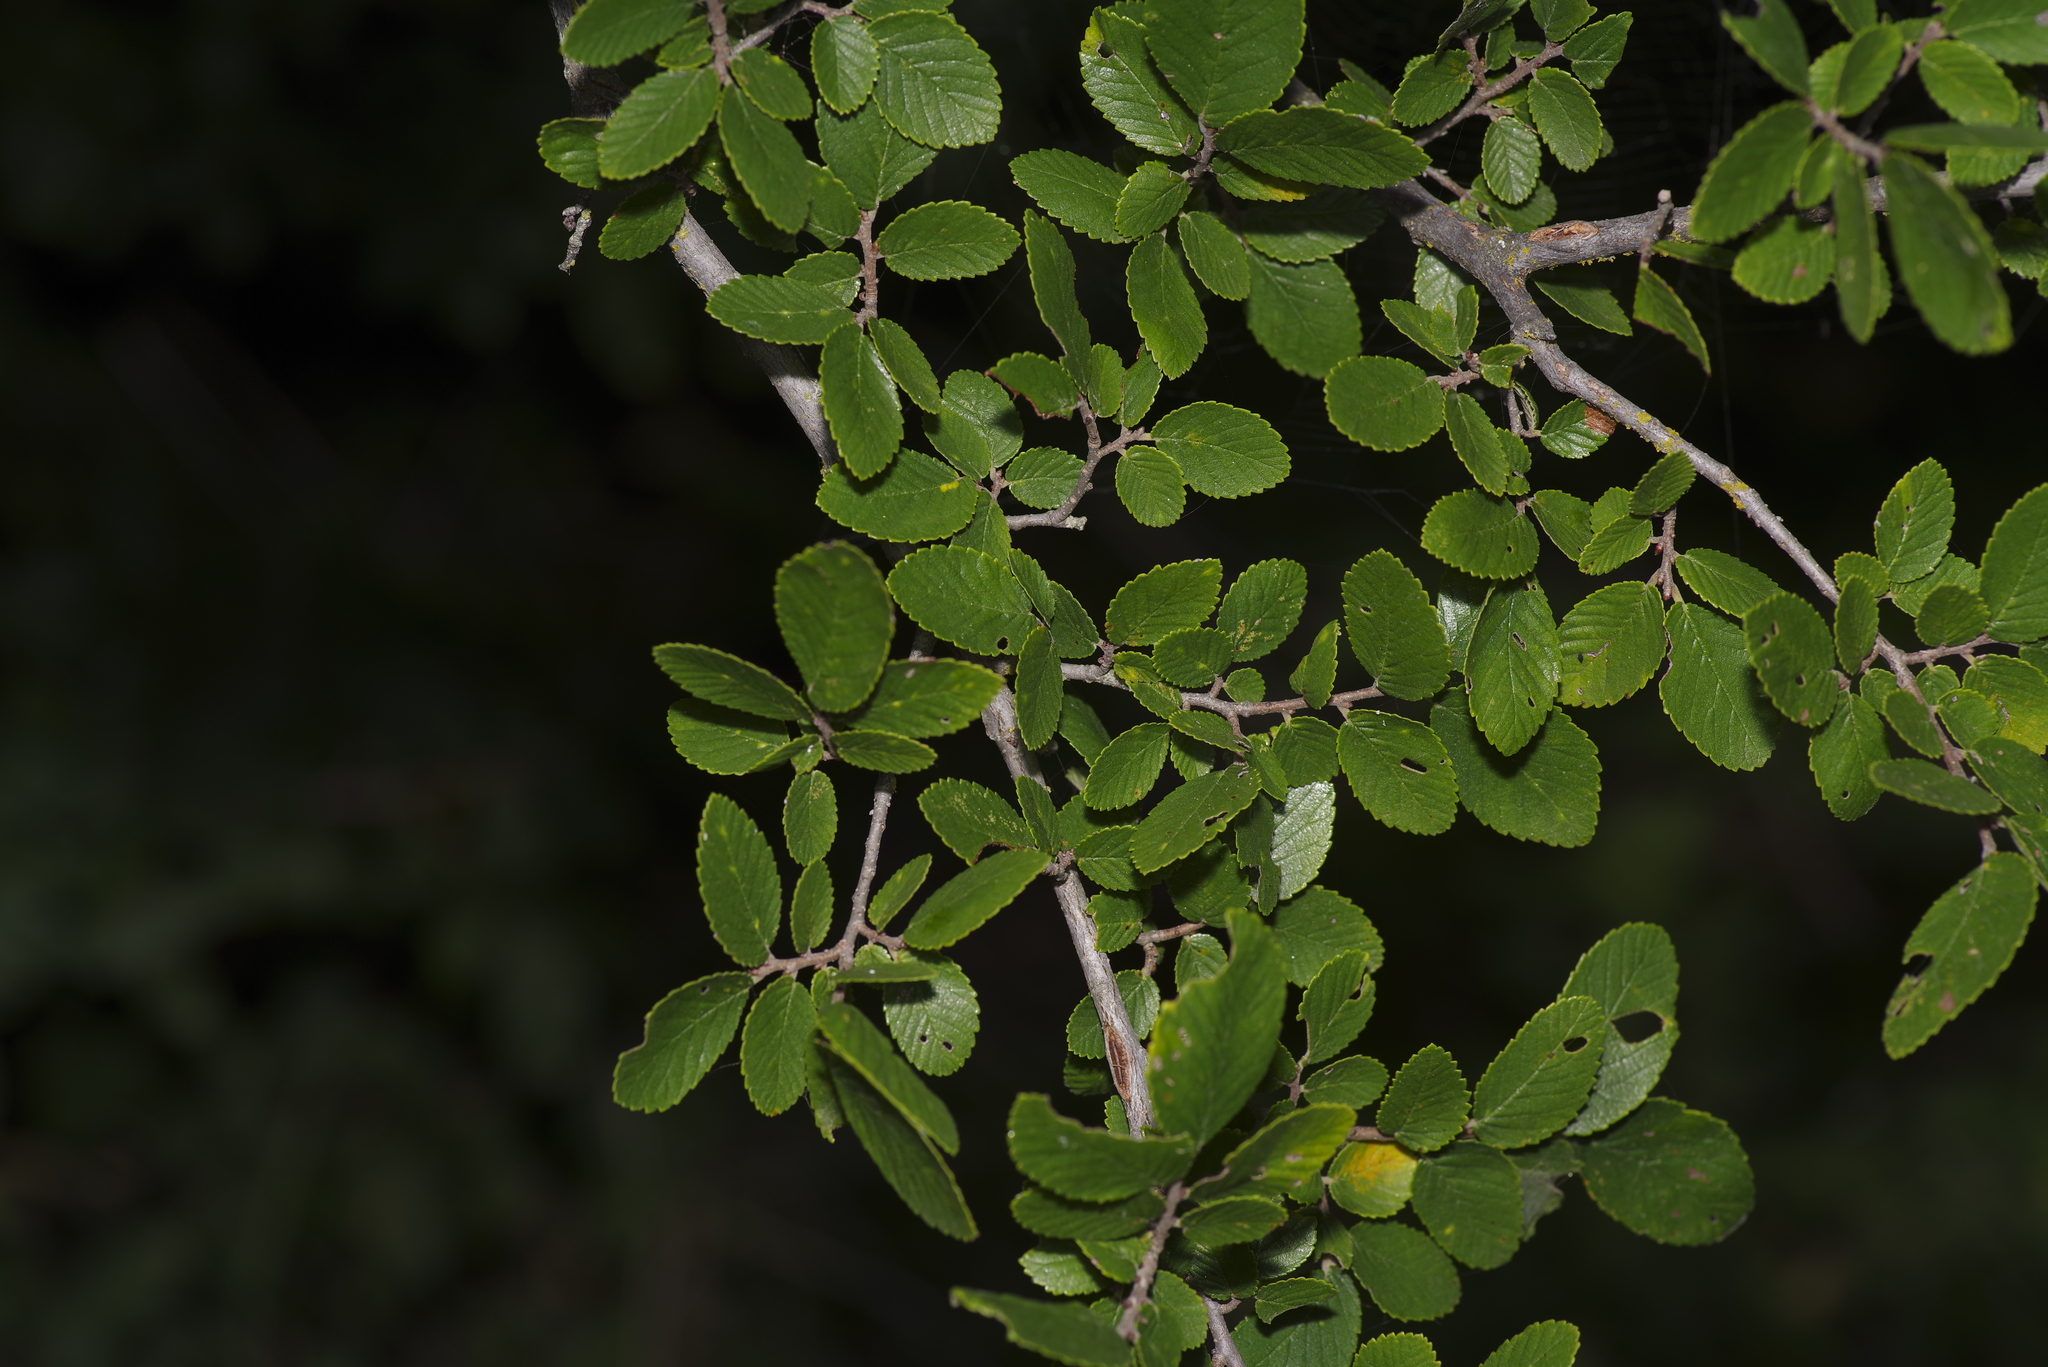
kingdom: Plantae
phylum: Tracheophyta
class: Magnoliopsida
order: Rosales
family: Ulmaceae
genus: Ulmus
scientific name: Ulmus crassifolia
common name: Basket elm
